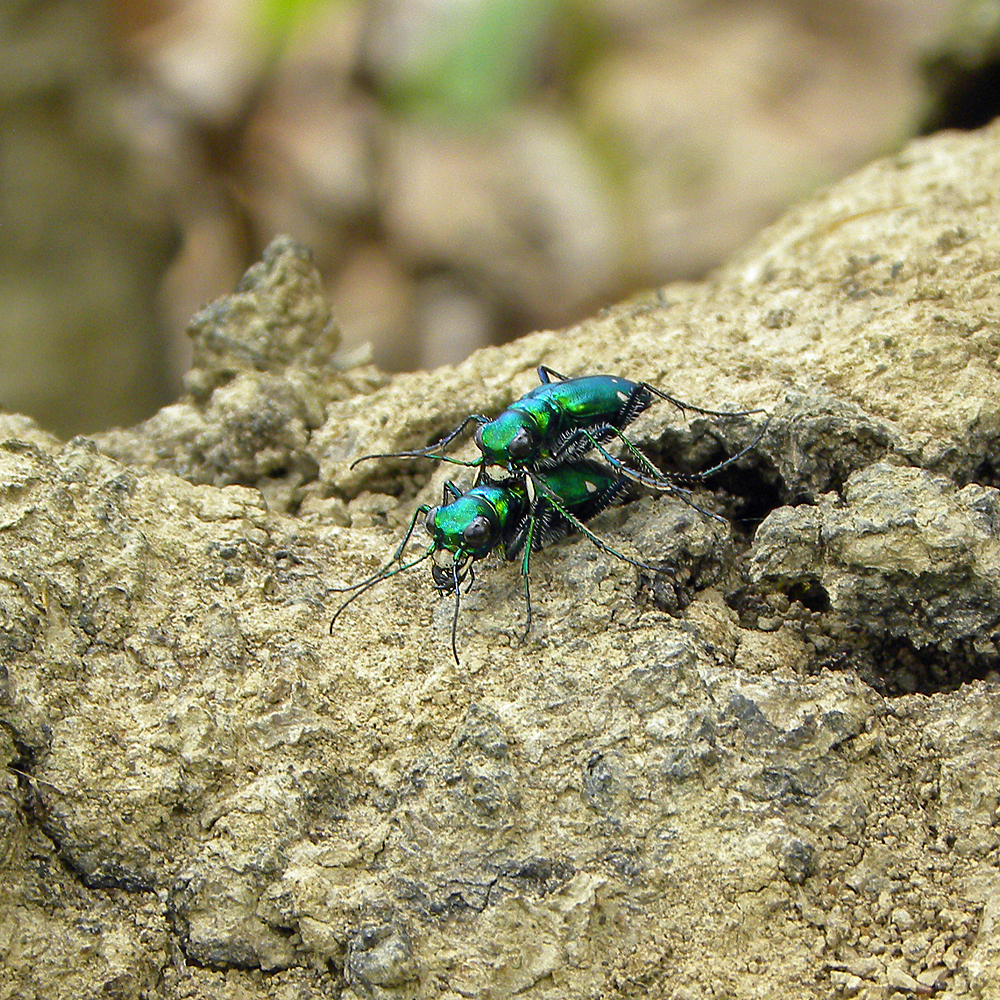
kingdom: Animalia
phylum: Arthropoda
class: Insecta
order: Coleoptera
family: Carabidae
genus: Cicindela
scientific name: Cicindela sexguttata
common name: Six-spotted tiger beetle
